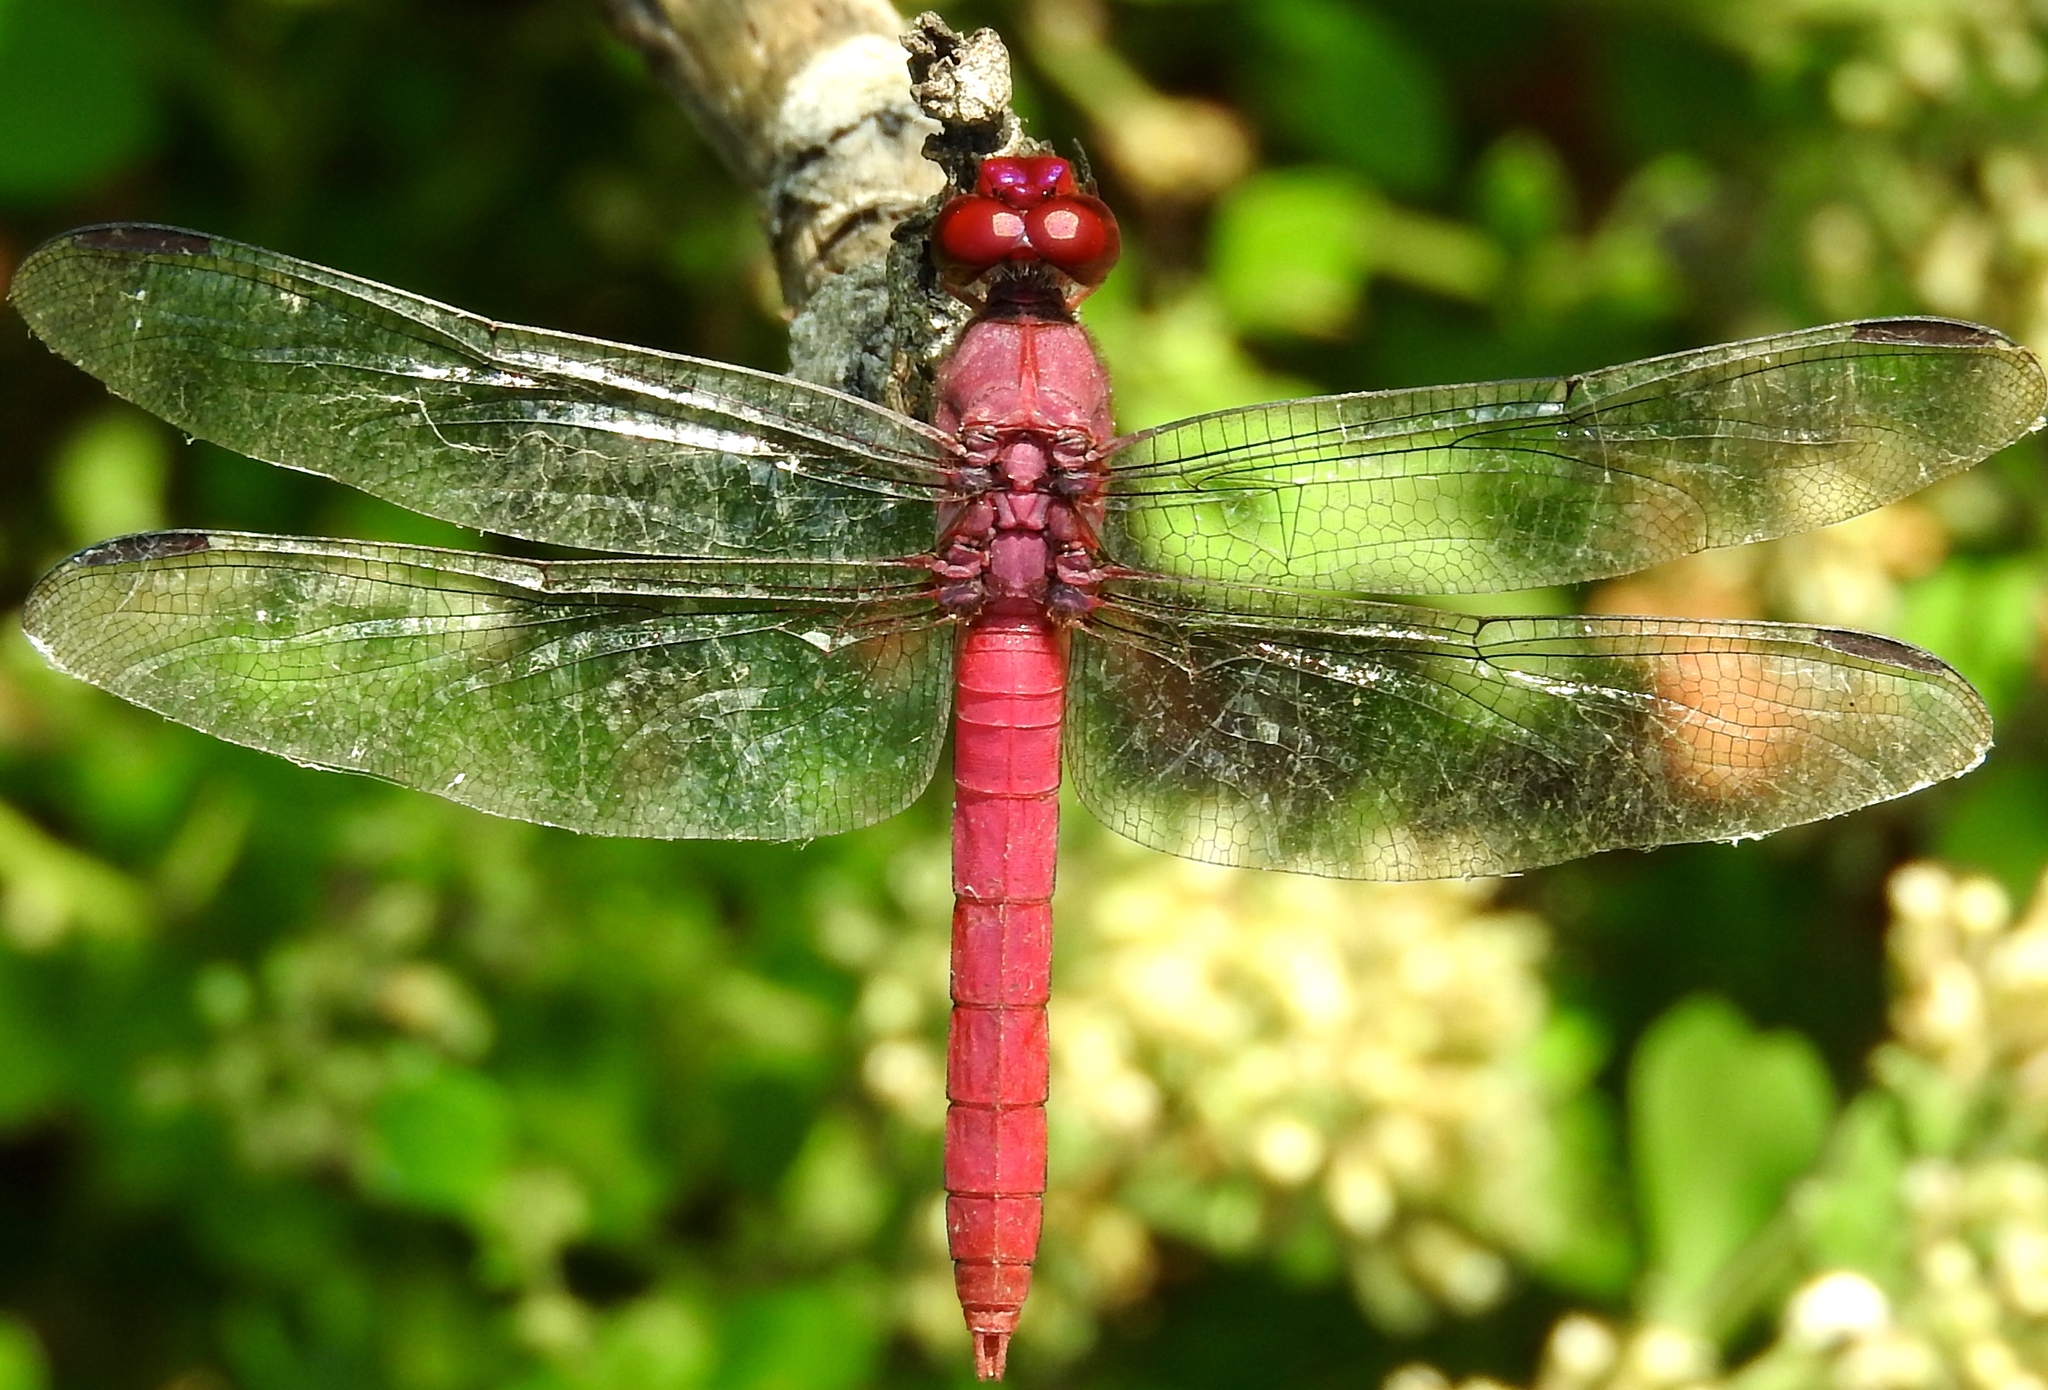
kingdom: Animalia
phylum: Arthropoda
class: Insecta
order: Odonata
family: Libellulidae
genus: Orthemis
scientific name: Orthemis discolor
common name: Carmine skimmer
